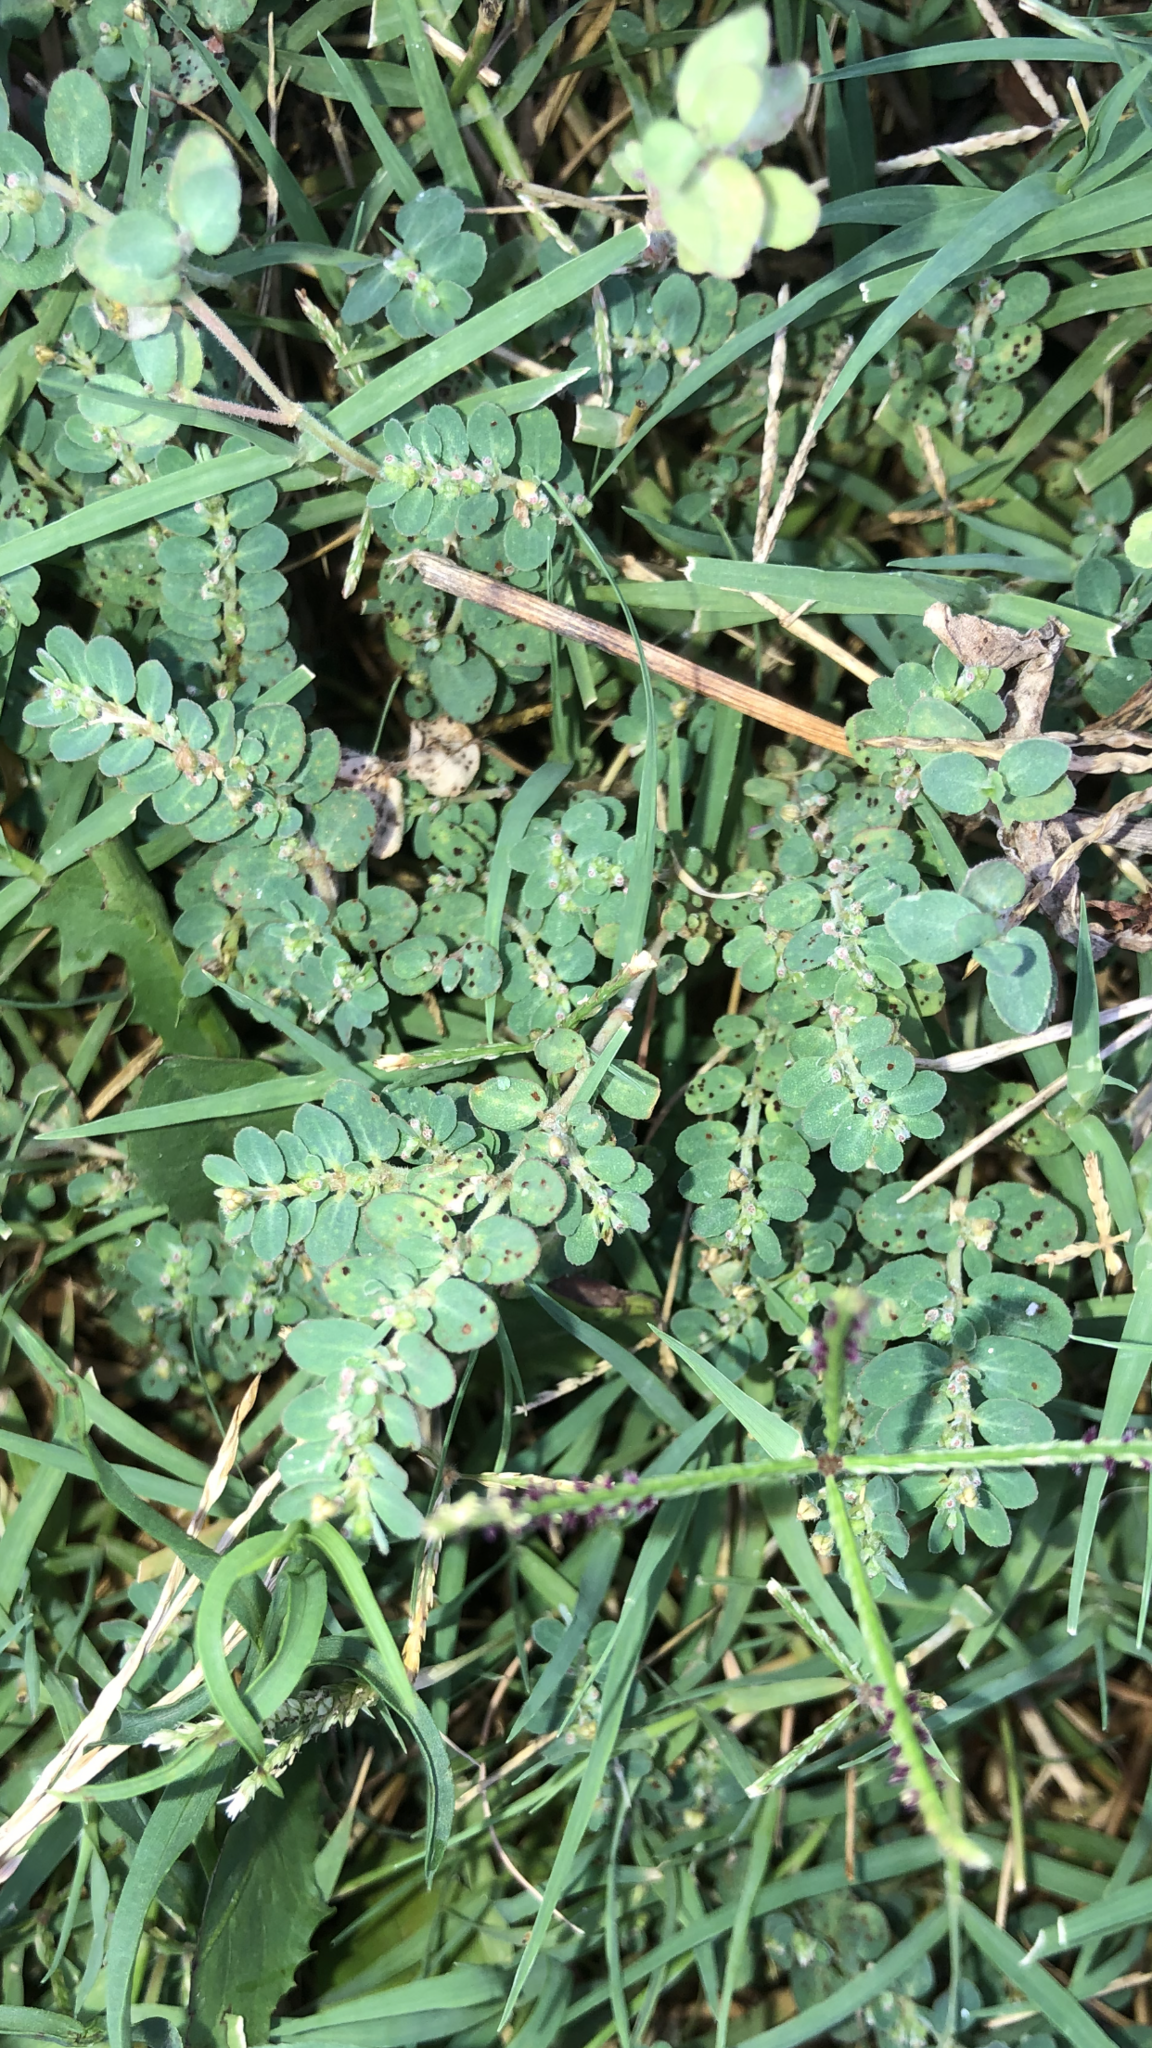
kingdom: Plantae
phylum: Tracheophyta
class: Magnoliopsida
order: Malpighiales
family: Euphorbiaceae
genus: Euphorbia
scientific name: Euphorbia prostrata
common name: Prostrate sandmat
